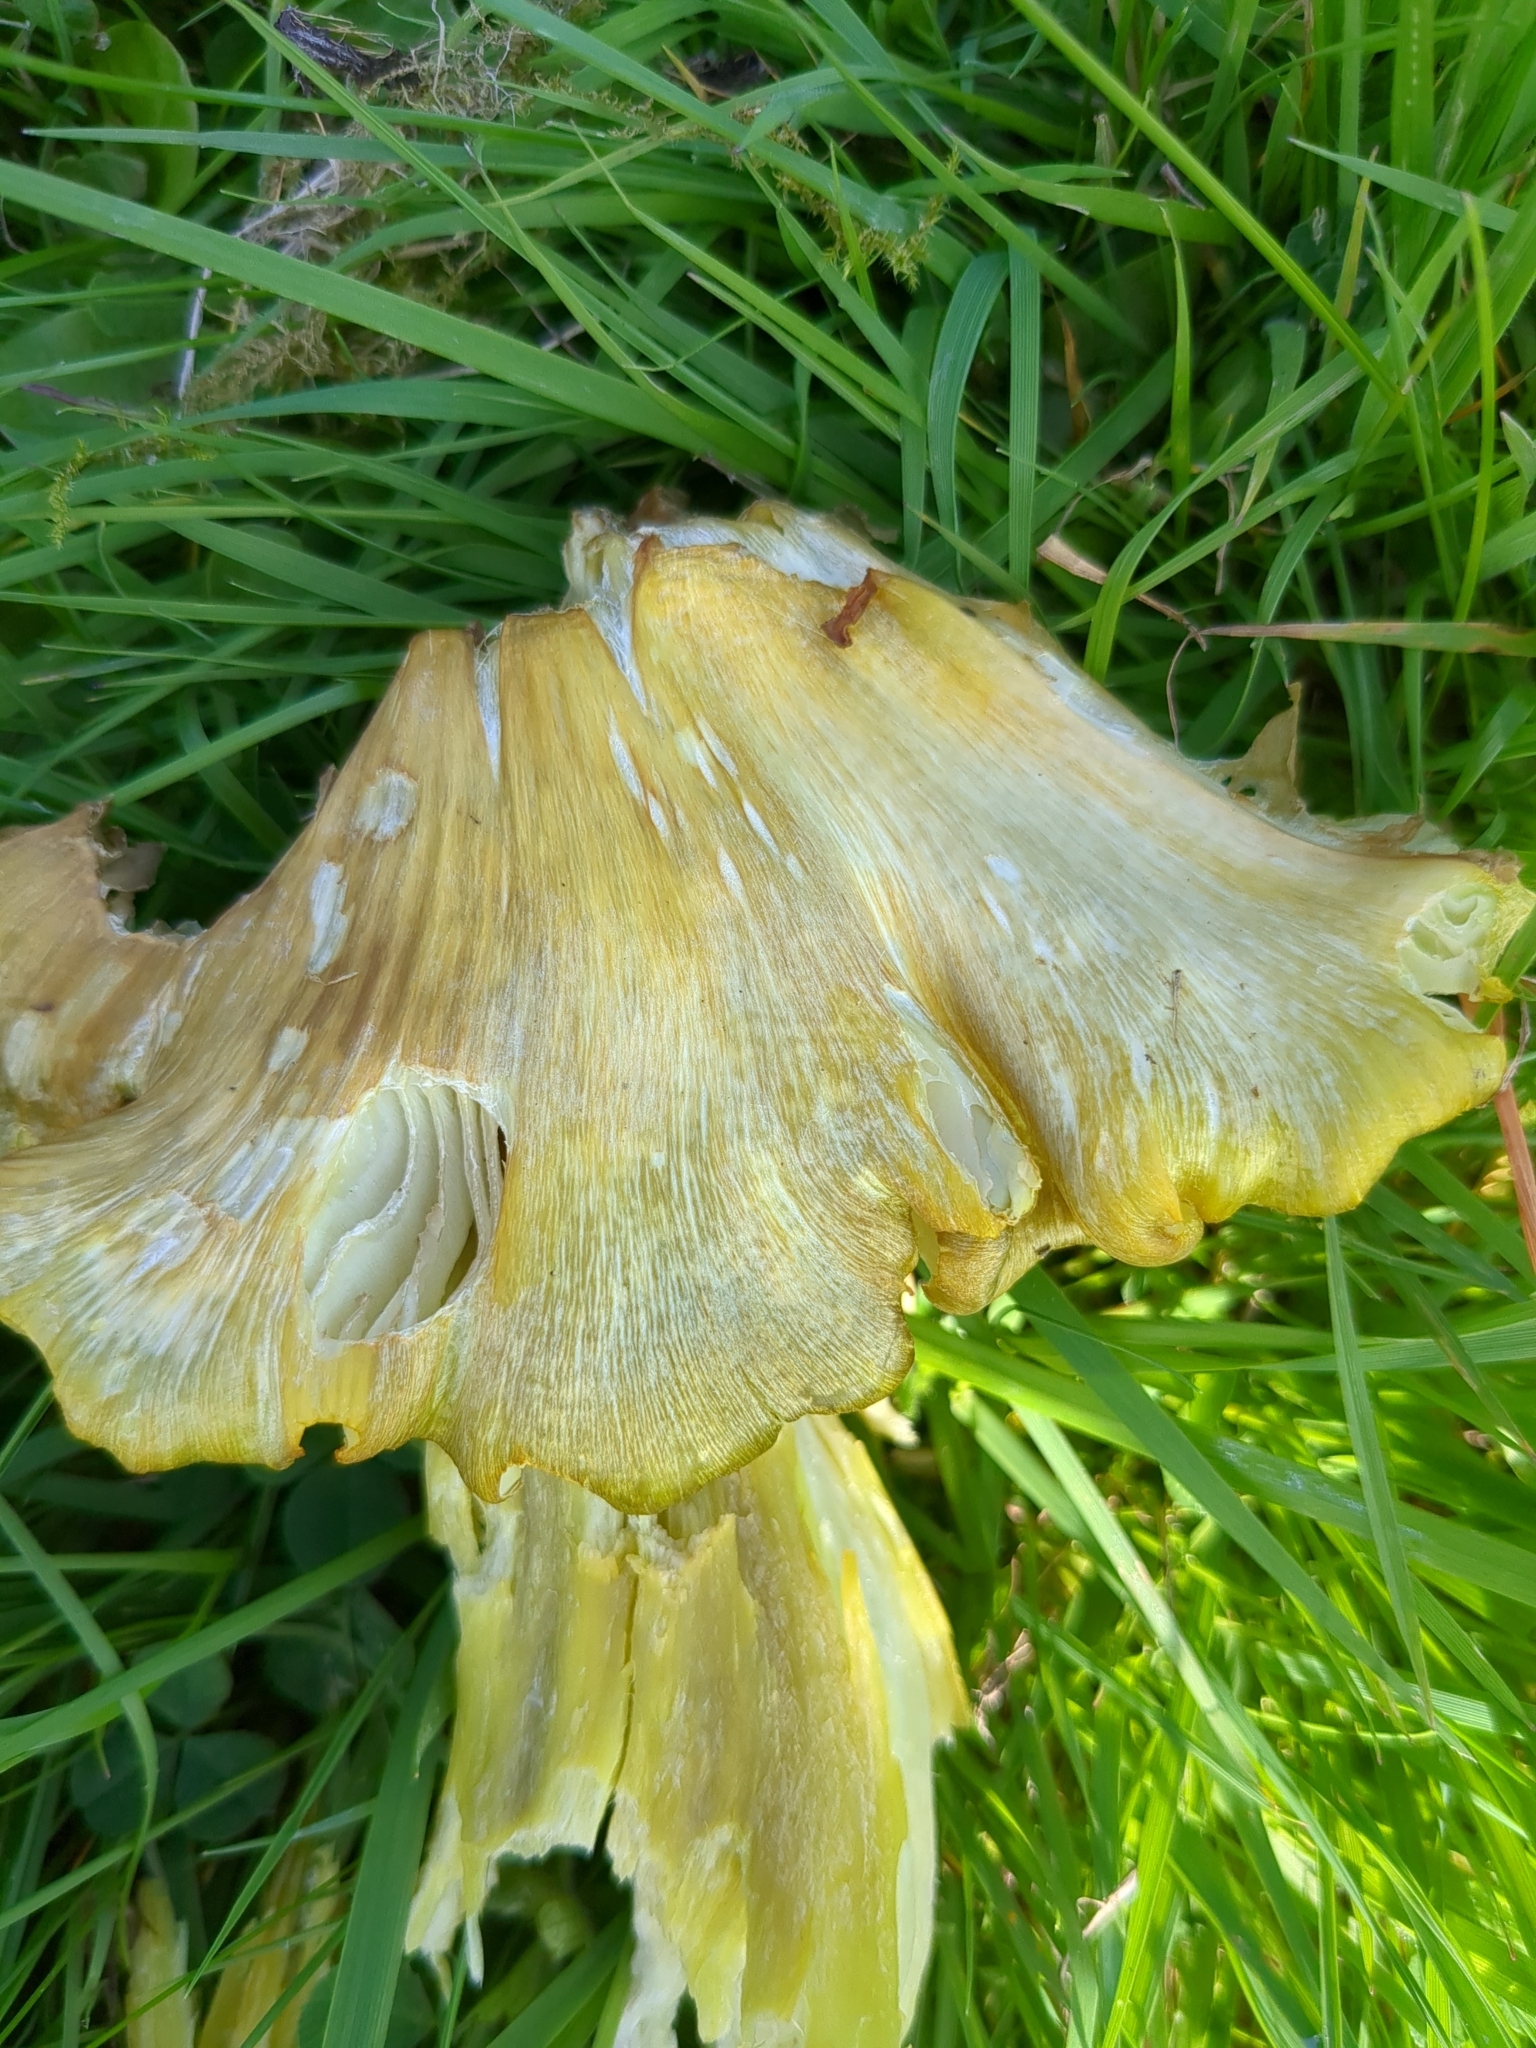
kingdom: Fungi
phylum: Basidiomycota
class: Agaricomycetes
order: Agaricales
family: Hygrophoraceae
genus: Hygrocybe
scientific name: Hygrocybe citrinovirens
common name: Citrine waxcap
